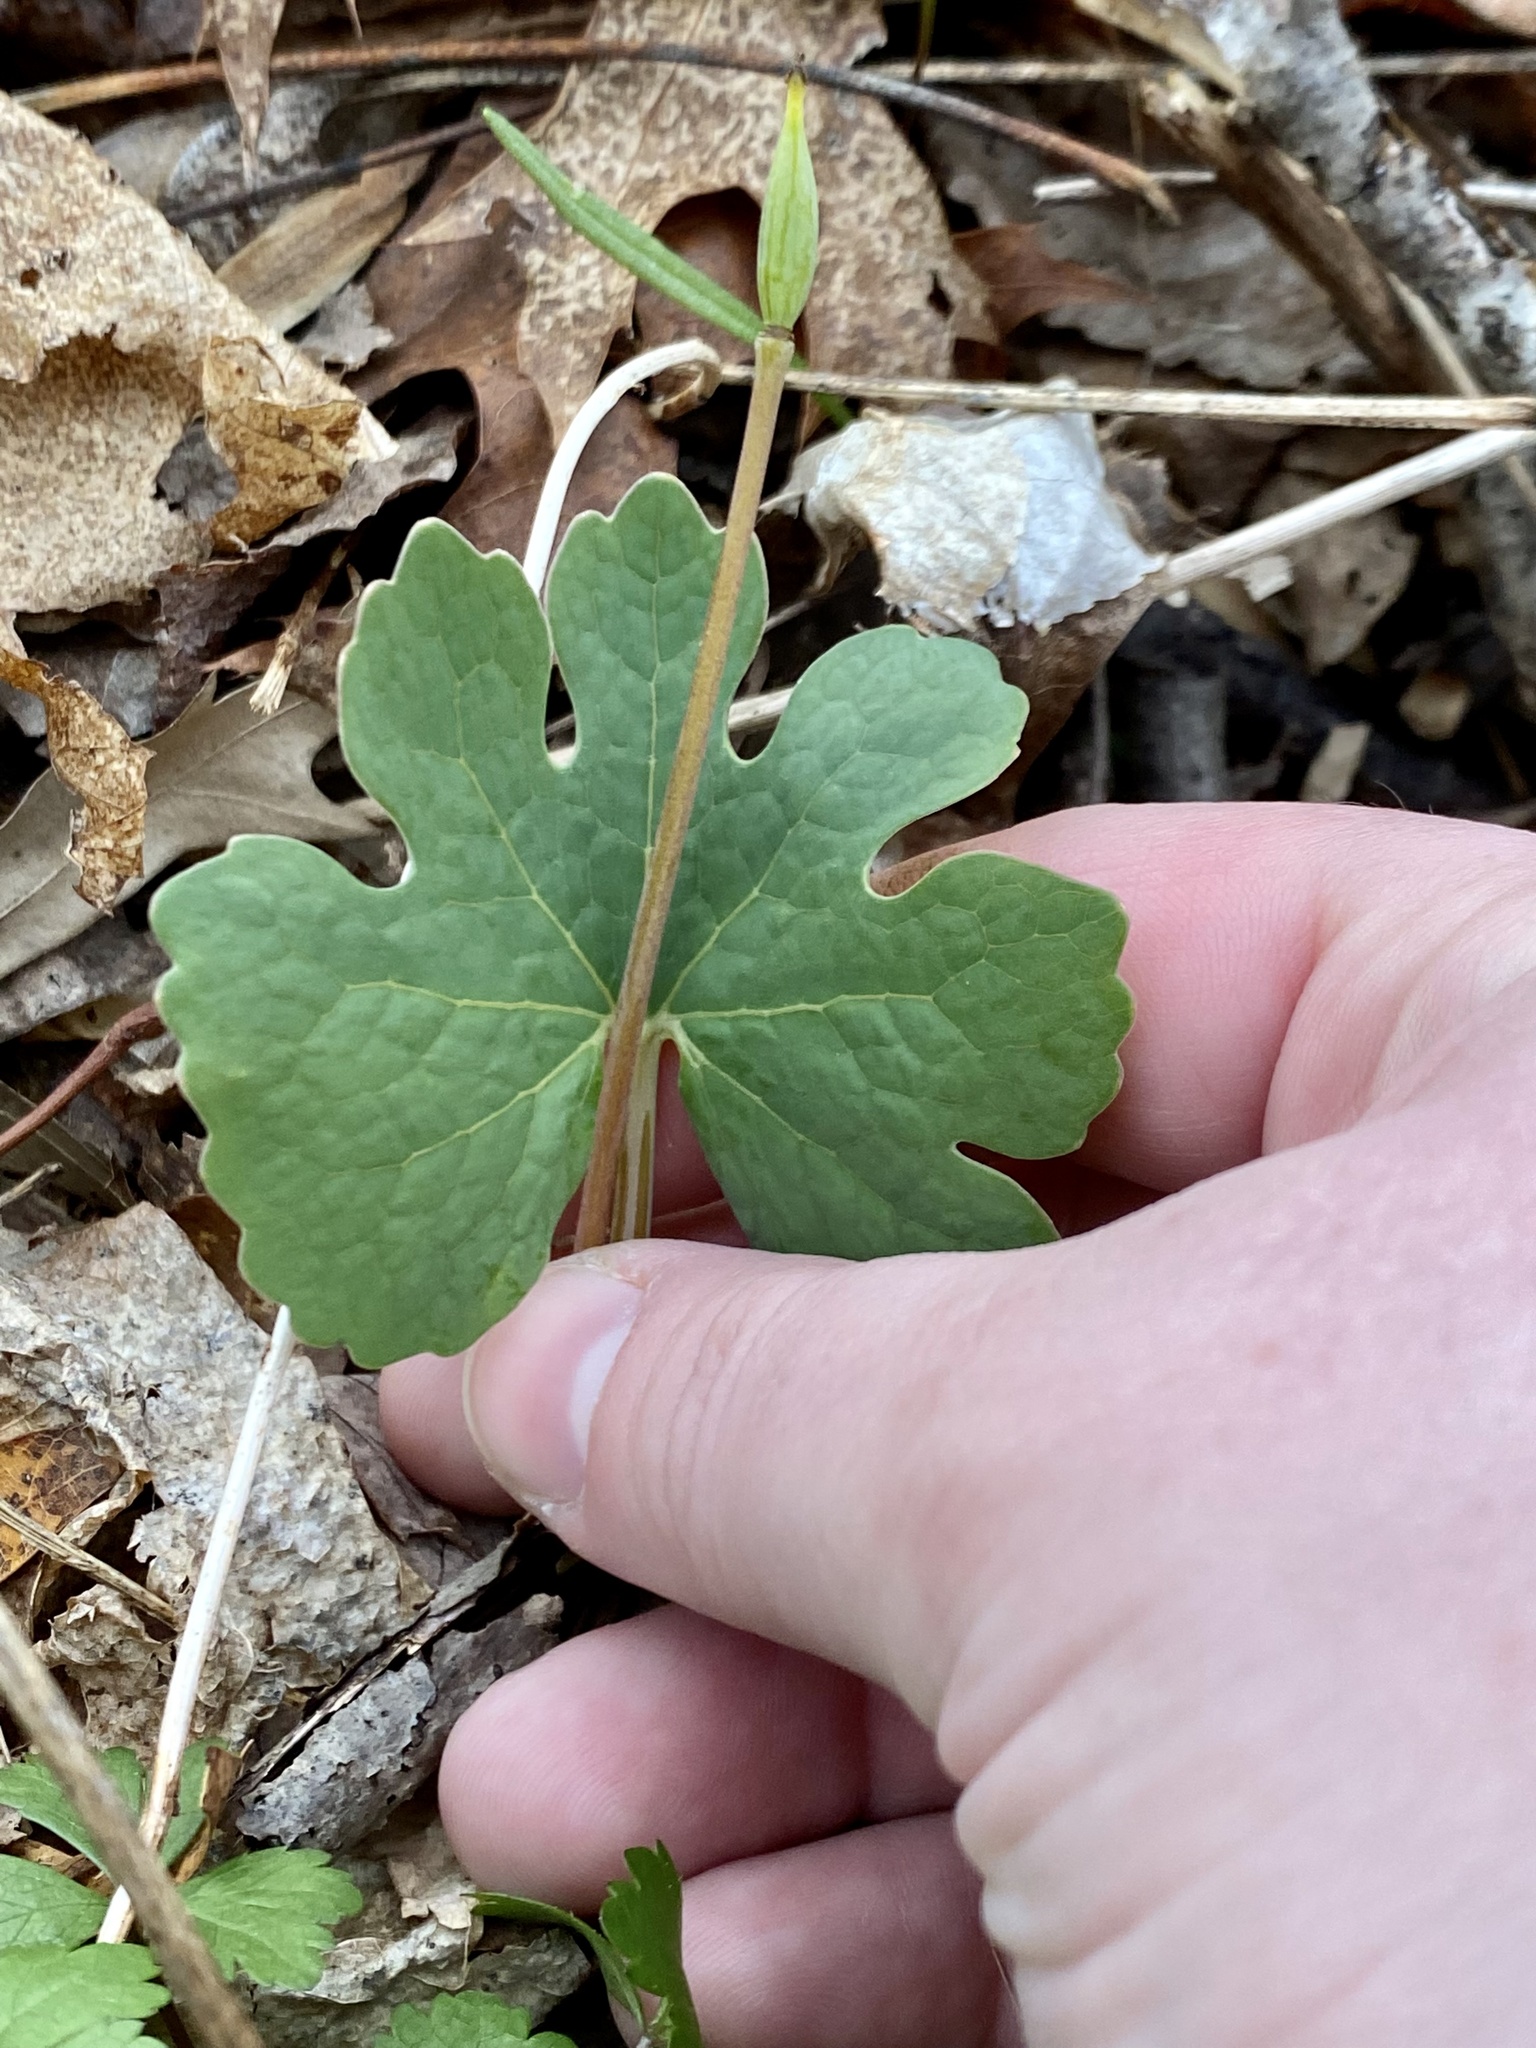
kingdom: Plantae
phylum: Tracheophyta
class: Magnoliopsida
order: Ranunculales
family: Papaveraceae
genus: Sanguinaria
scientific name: Sanguinaria canadensis
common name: Bloodroot
